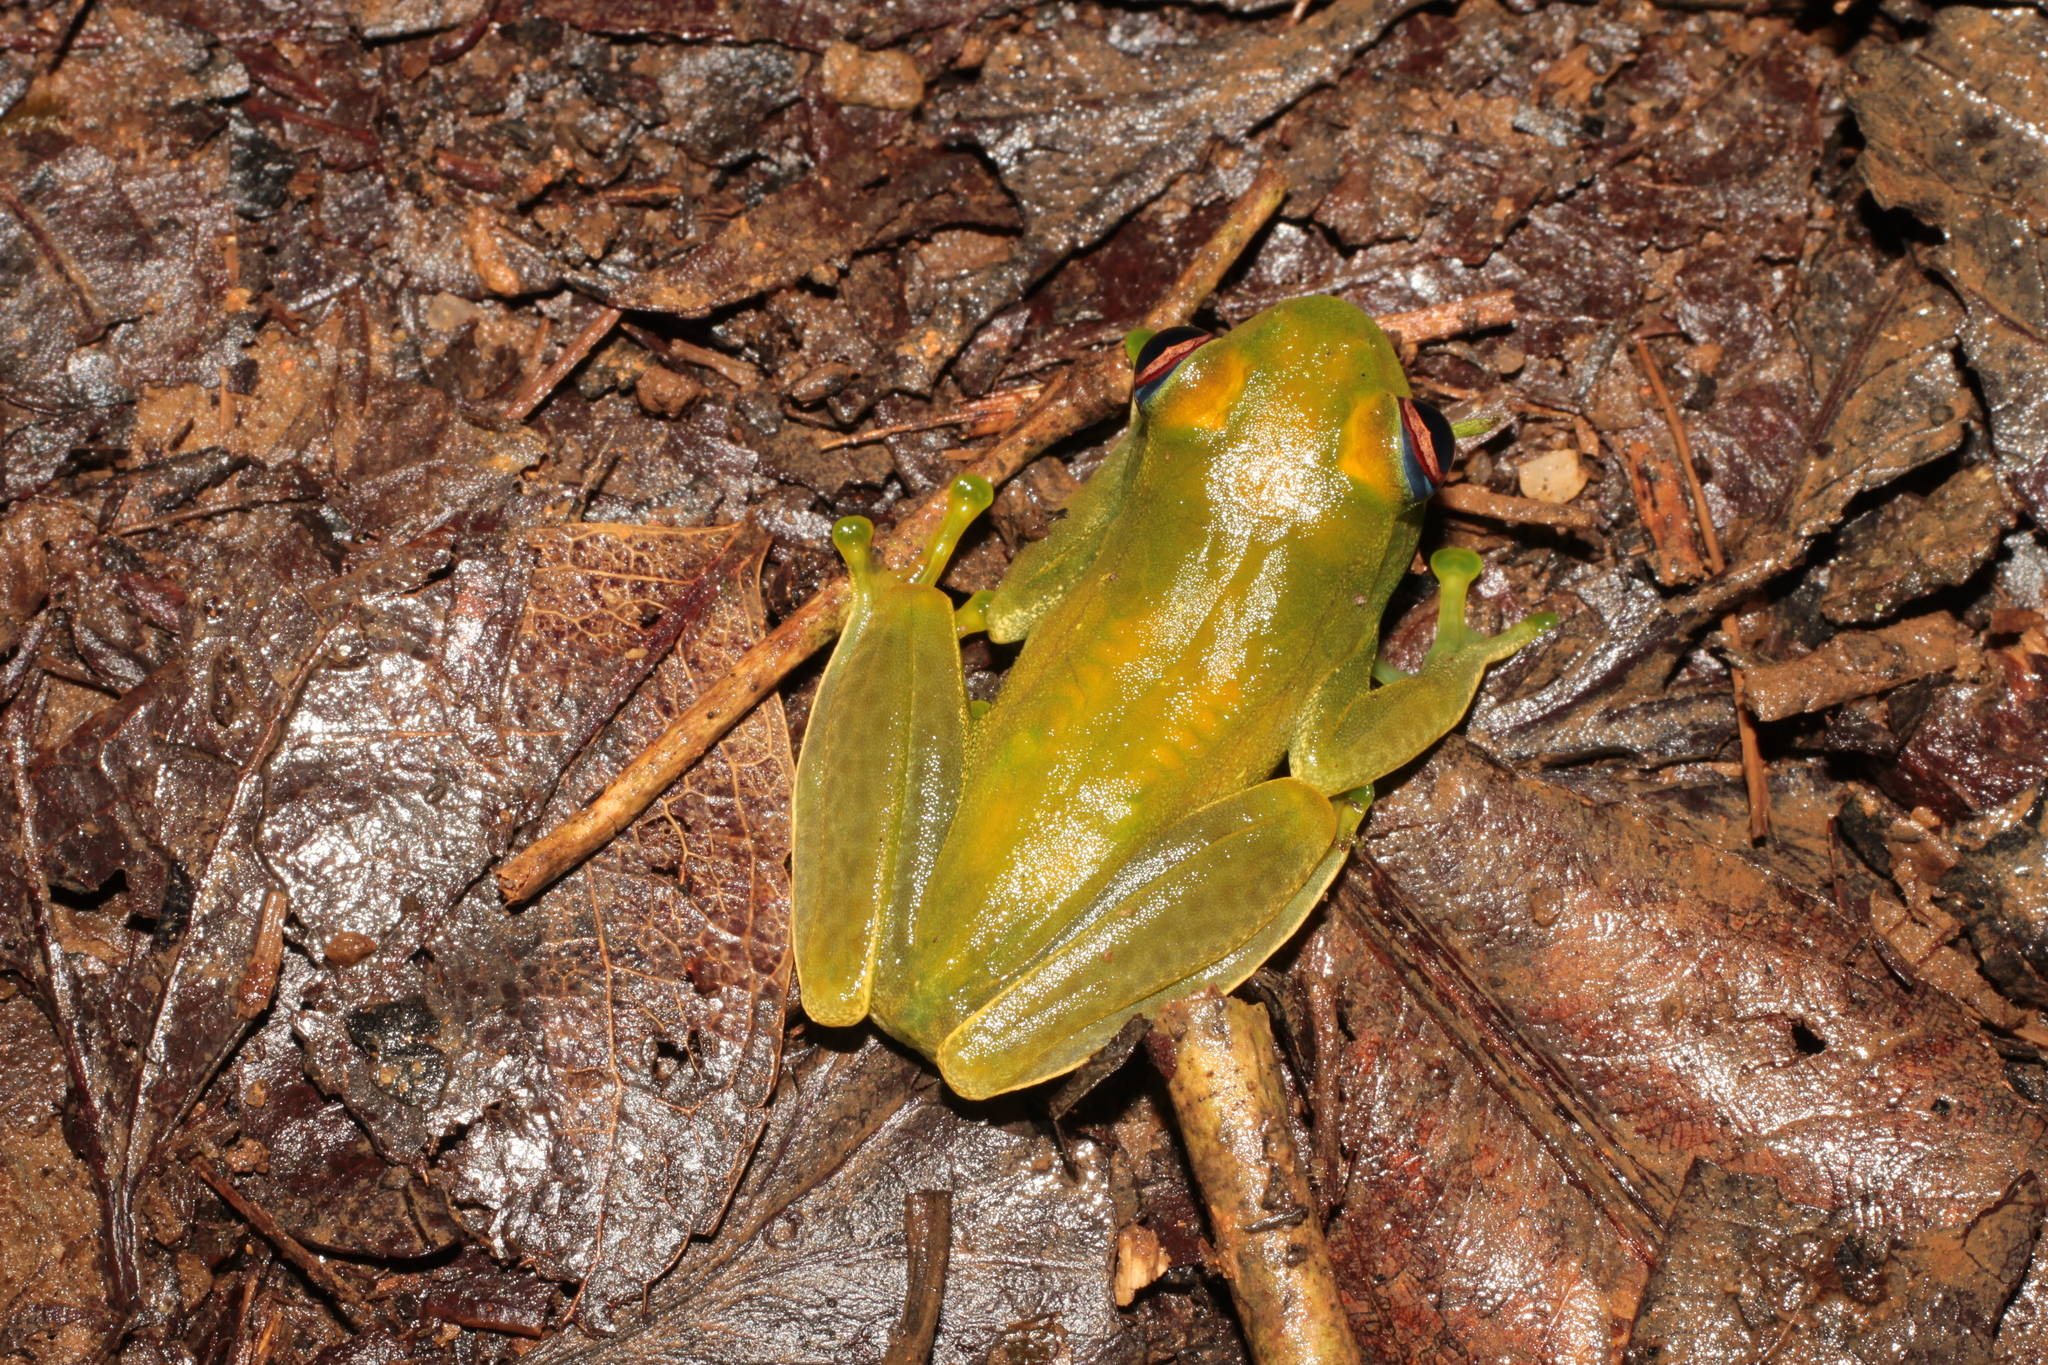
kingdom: Animalia
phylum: Chordata
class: Amphibia
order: Anura
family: Mantellidae
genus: Boophis
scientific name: Boophis luteus
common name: Ankafana bright-eyed frog
